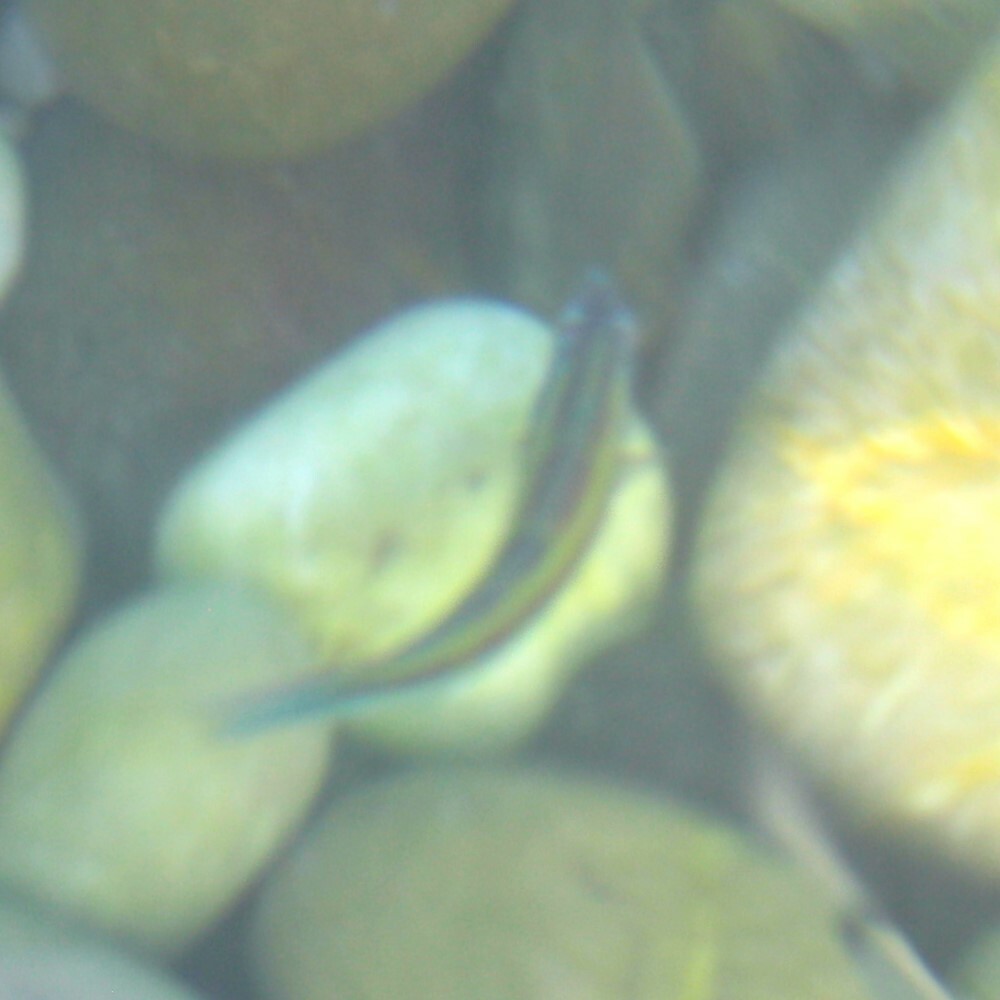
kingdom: Animalia
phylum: Chordata
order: Perciformes
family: Labridae
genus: Thalassoma
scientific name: Thalassoma pavo
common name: Ornate wrasse
